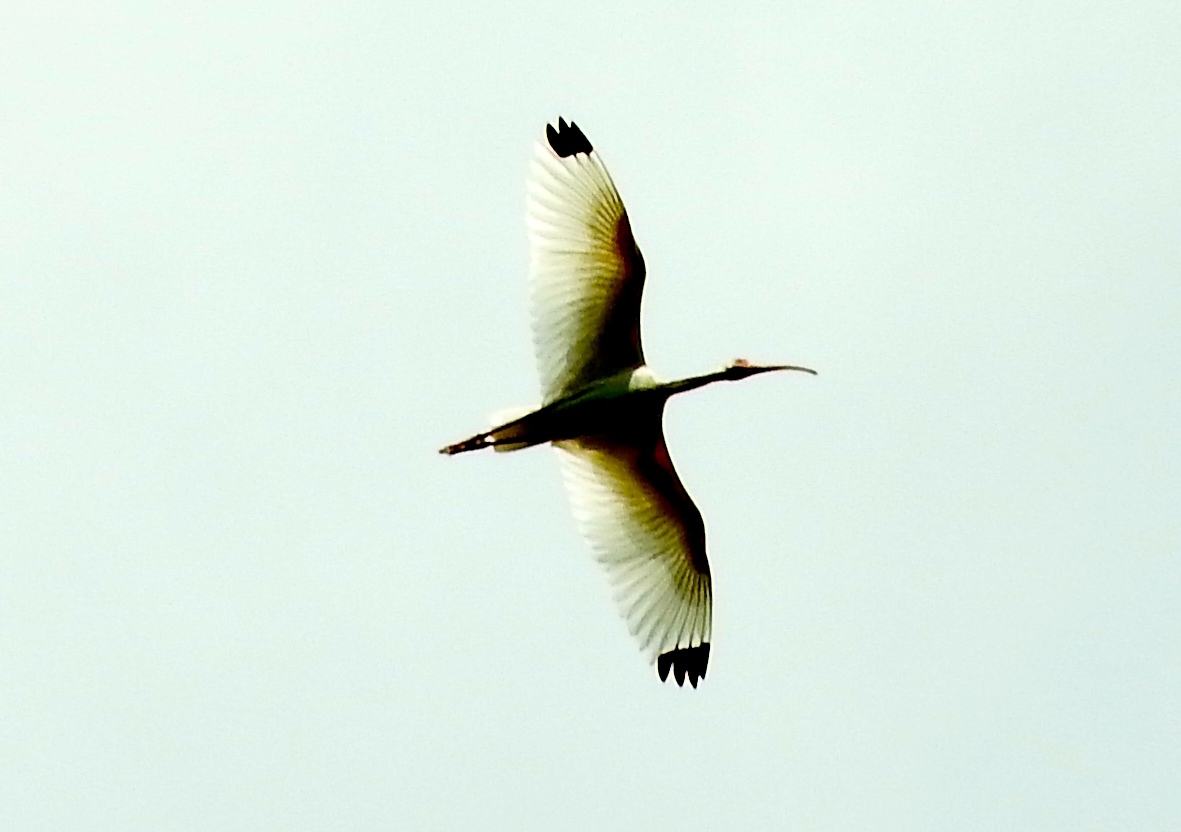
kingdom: Animalia
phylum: Chordata
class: Aves
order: Pelecaniformes
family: Threskiornithidae
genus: Eudocimus
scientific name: Eudocimus albus
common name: White ibis
